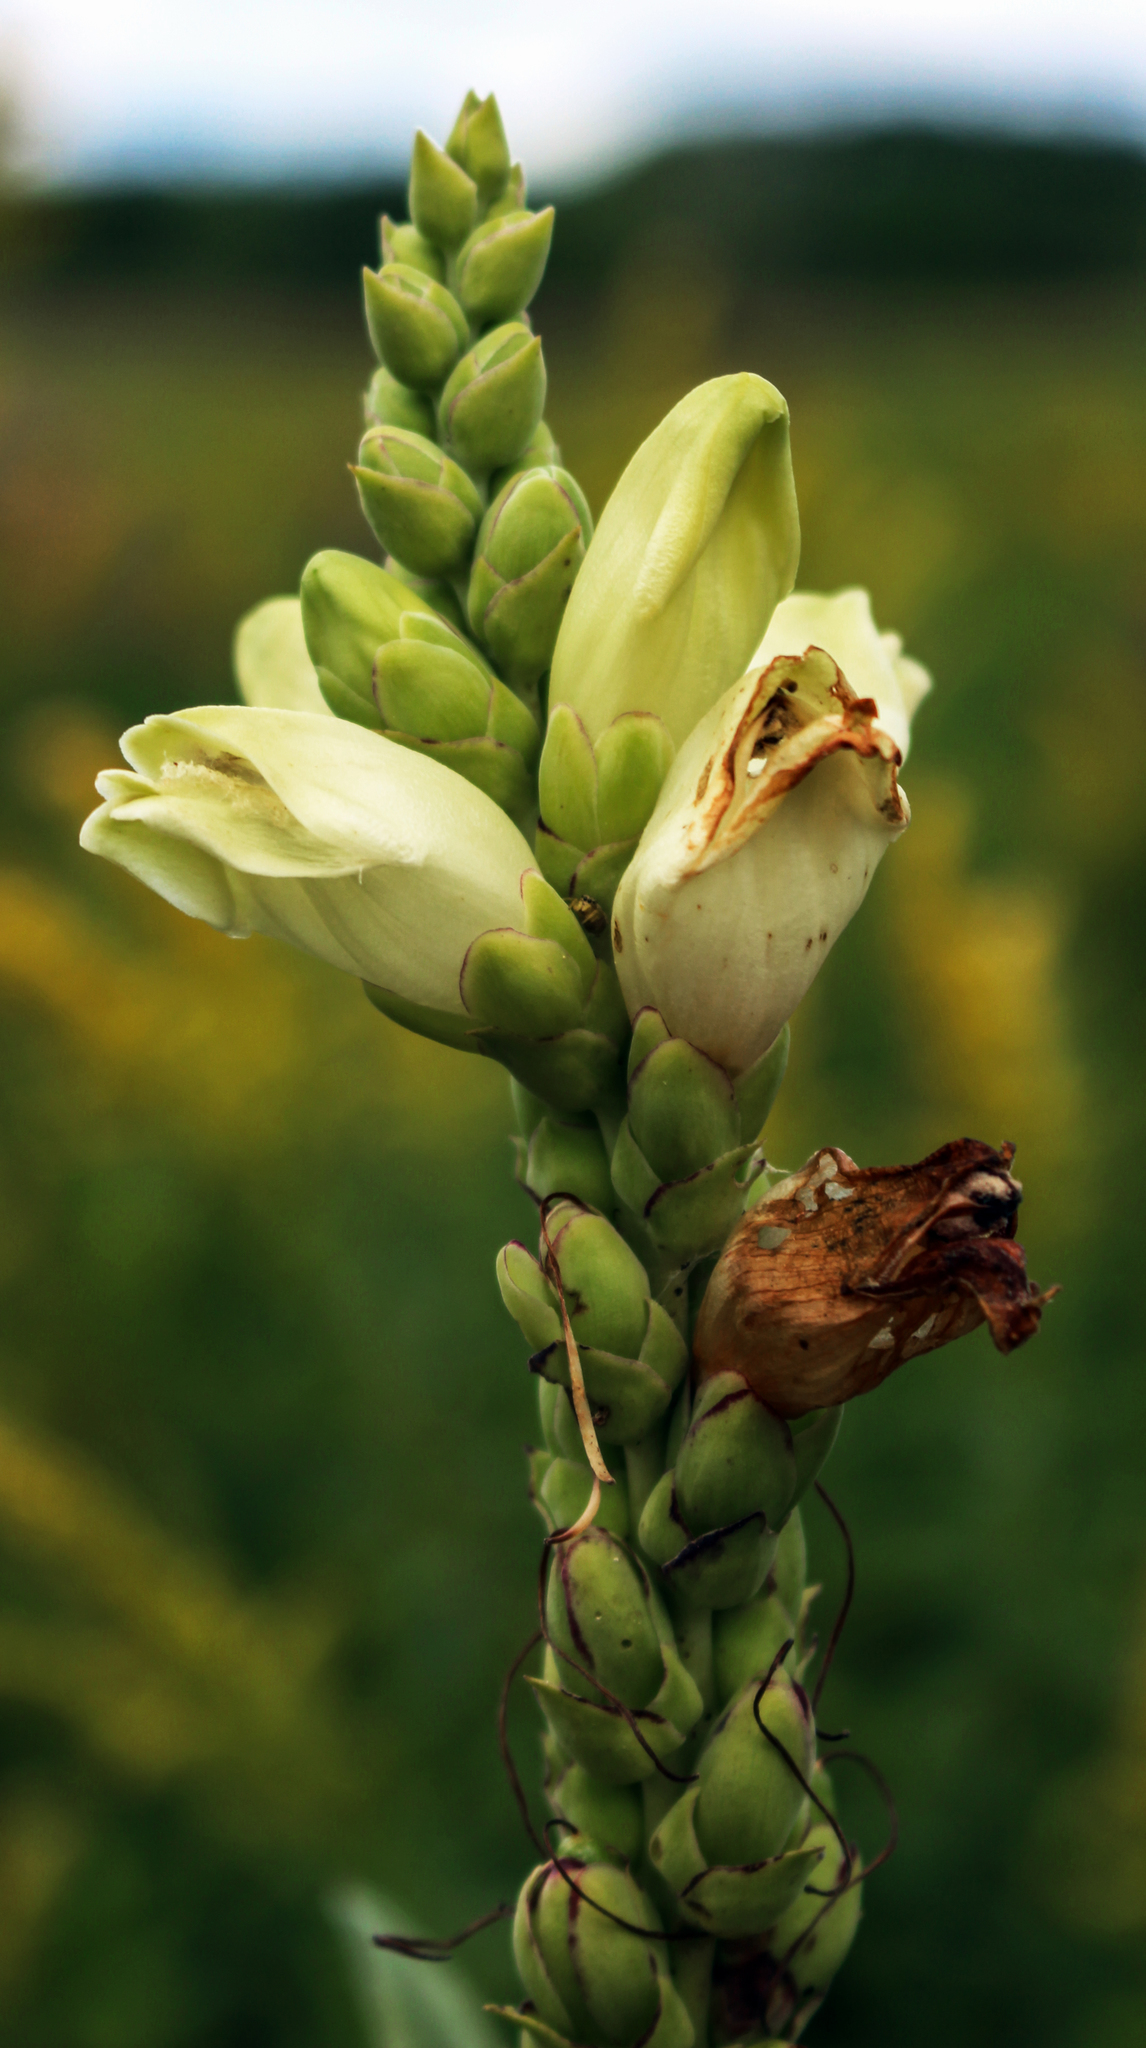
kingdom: Plantae
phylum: Tracheophyta
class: Magnoliopsida
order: Lamiales
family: Plantaginaceae
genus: Chelone
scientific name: Chelone glabra
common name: Snakehead
